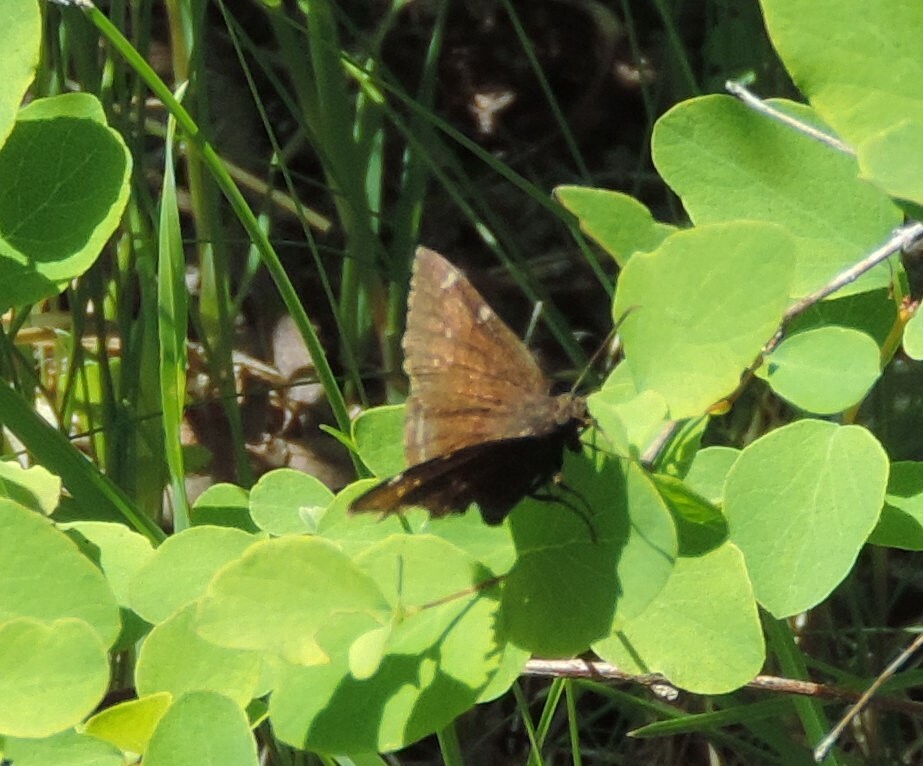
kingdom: Animalia
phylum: Arthropoda
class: Insecta
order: Lepidoptera
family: Hesperiidae
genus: Thorybes
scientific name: Thorybes pylades
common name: Northern cloudywing
